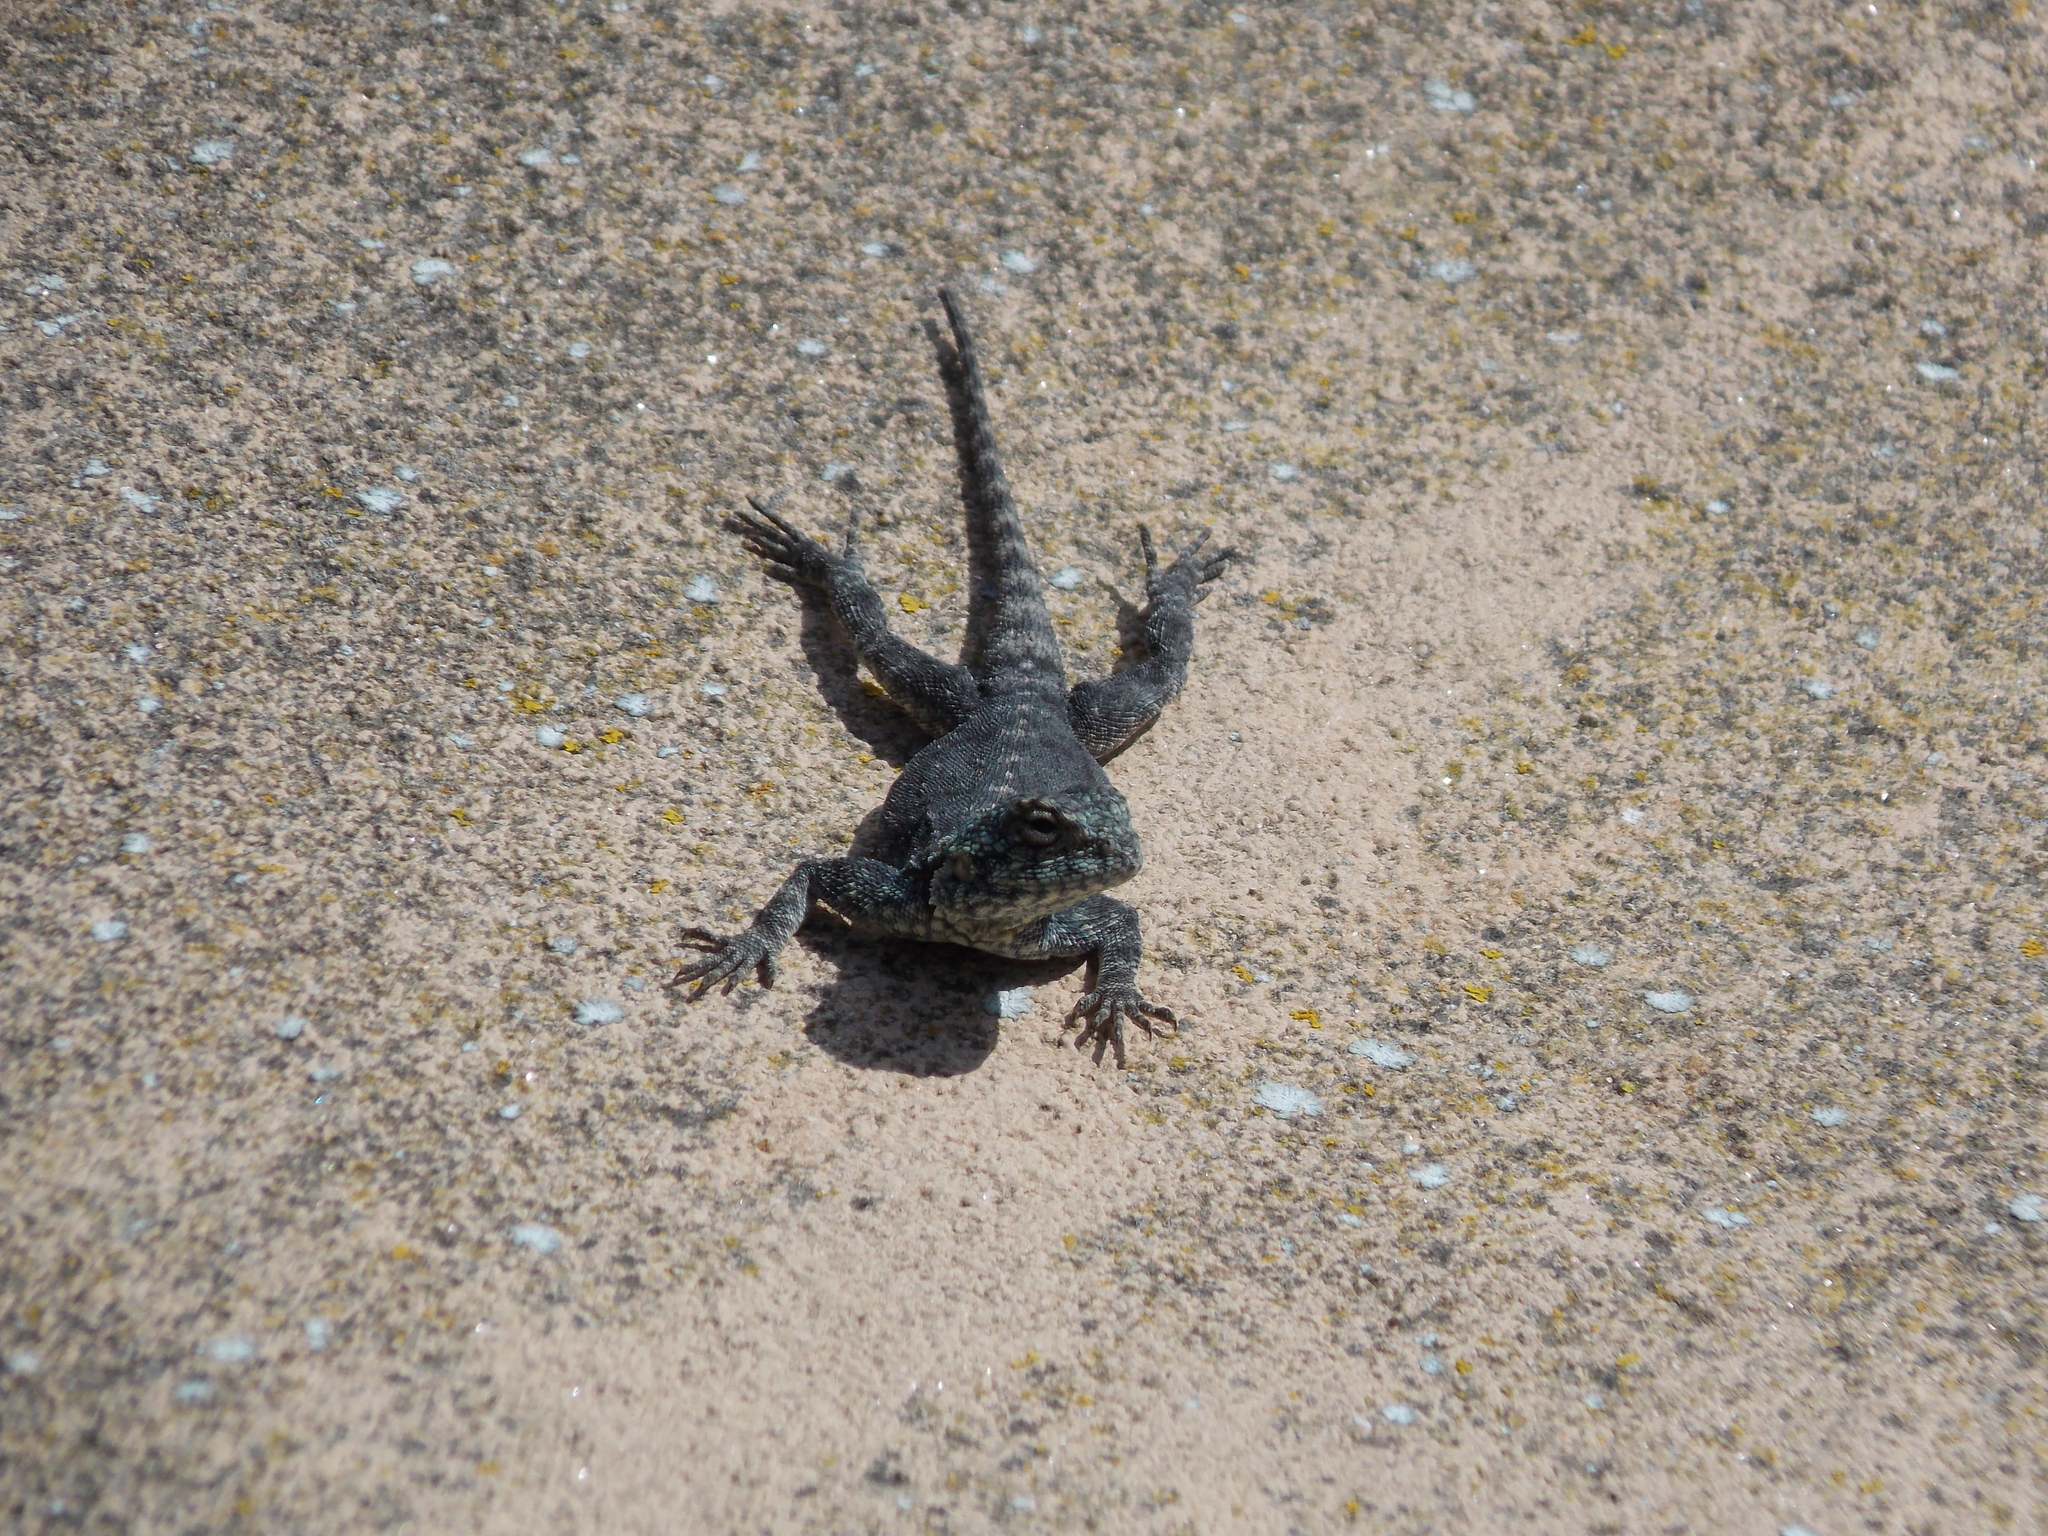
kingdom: Animalia
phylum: Chordata
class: Squamata
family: Agamidae
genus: Agama
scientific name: Agama atra
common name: Southern african rock agama
